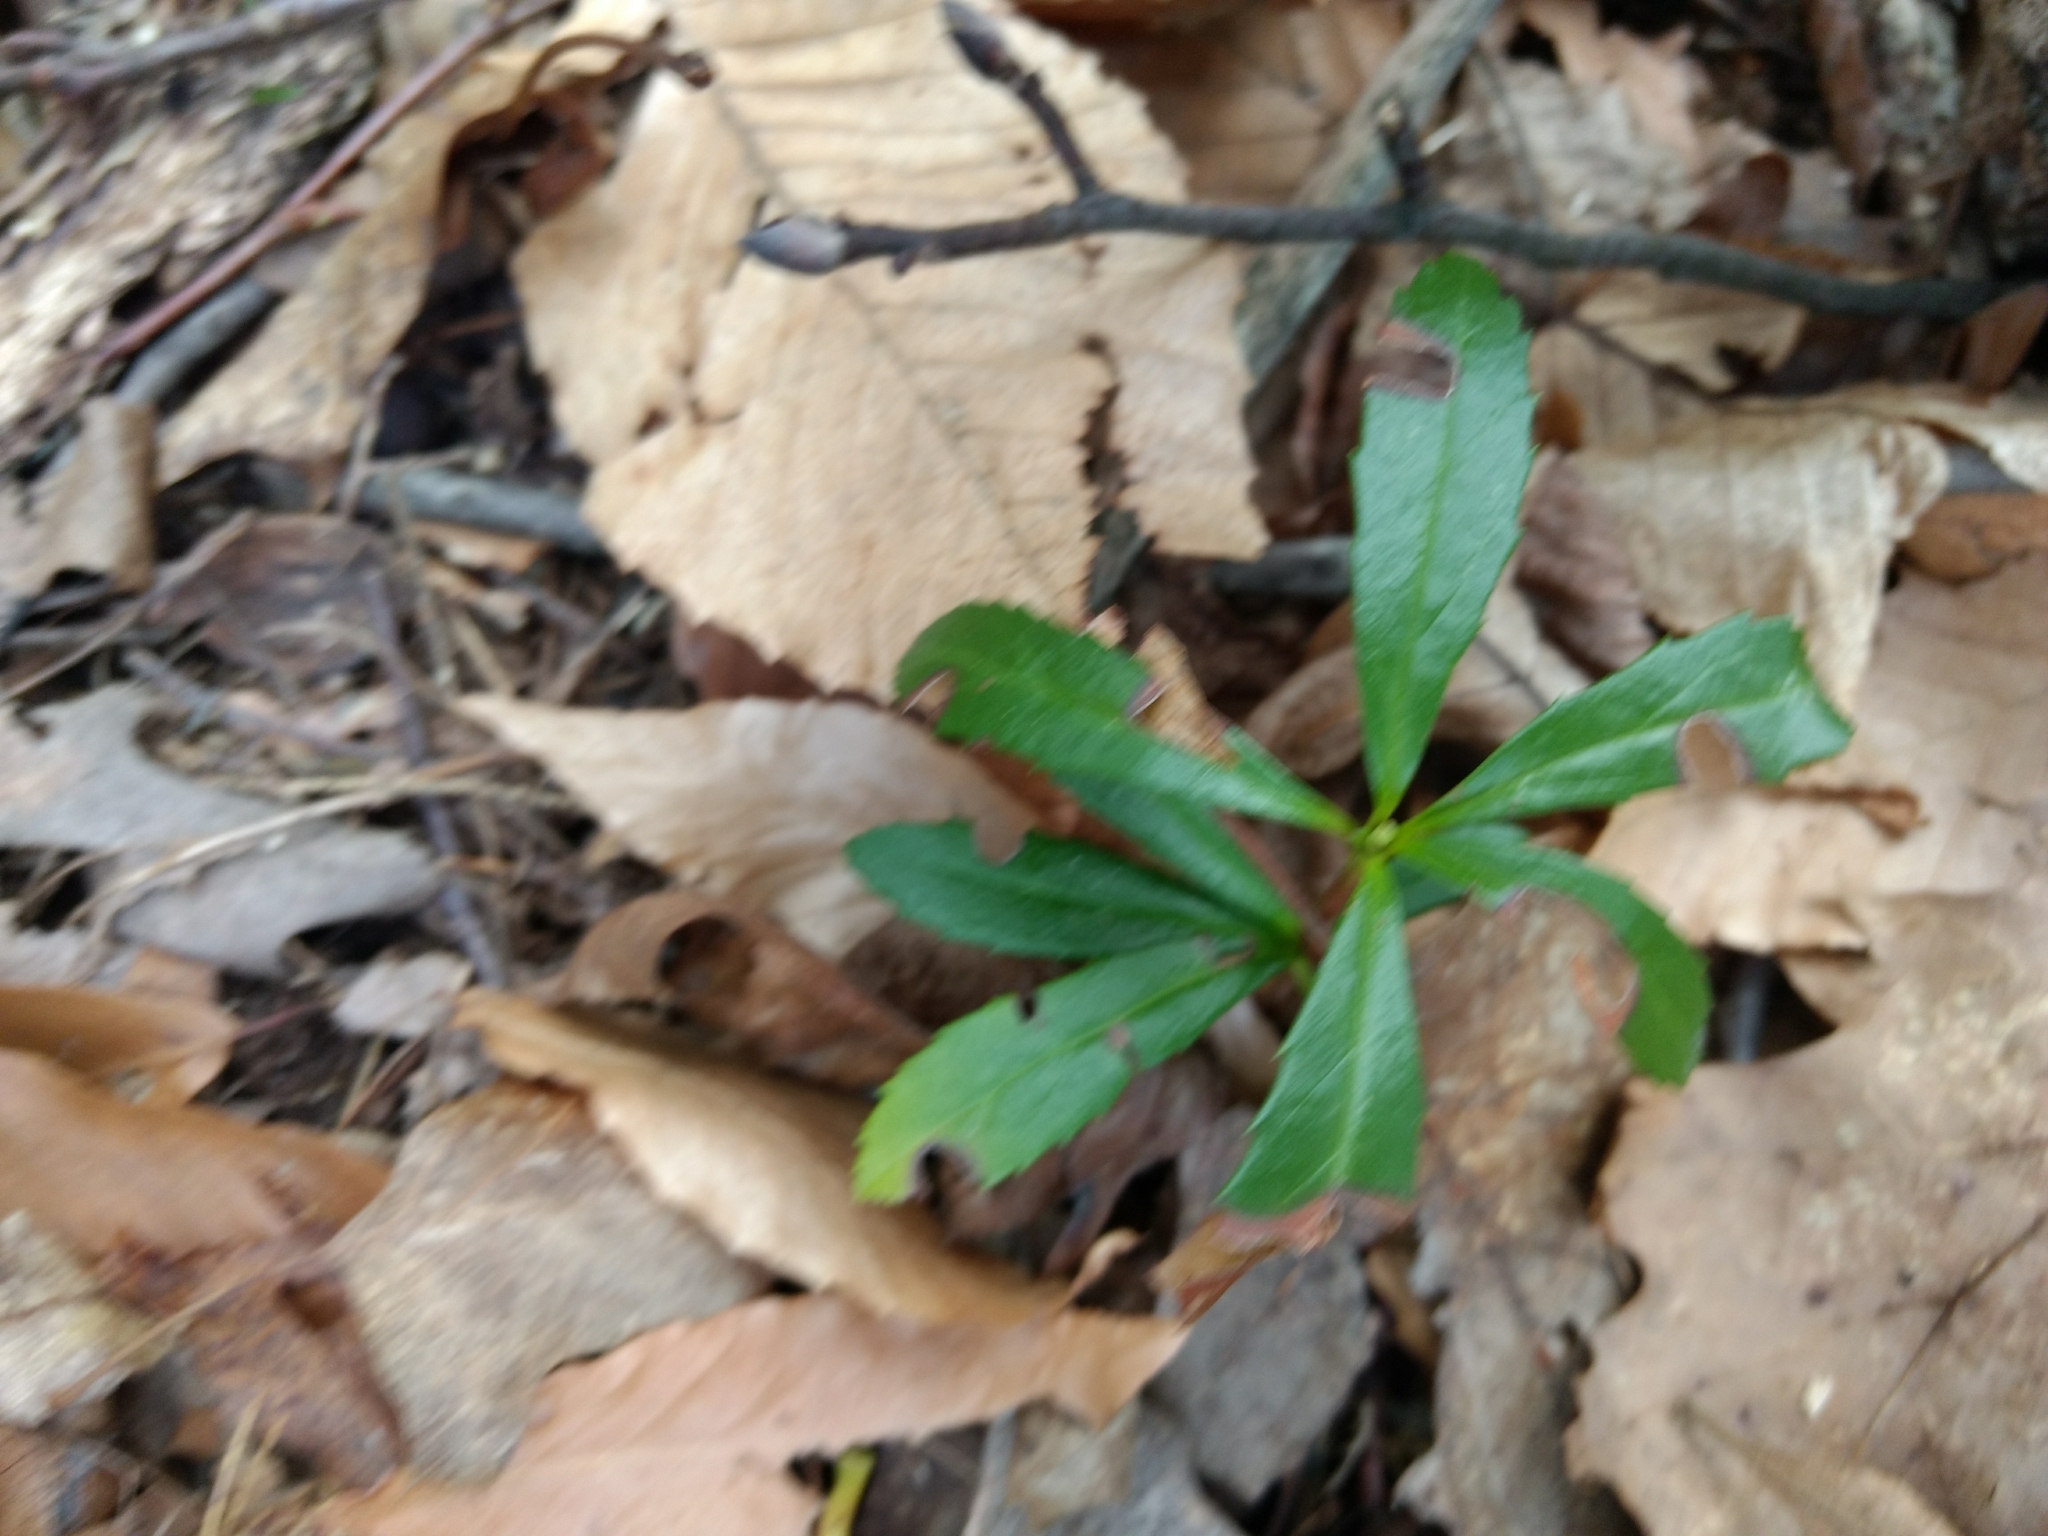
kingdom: Plantae
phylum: Tracheophyta
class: Magnoliopsida
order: Ericales
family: Ericaceae
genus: Chimaphila
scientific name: Chimaphila umbellata
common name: Pipsissewa
